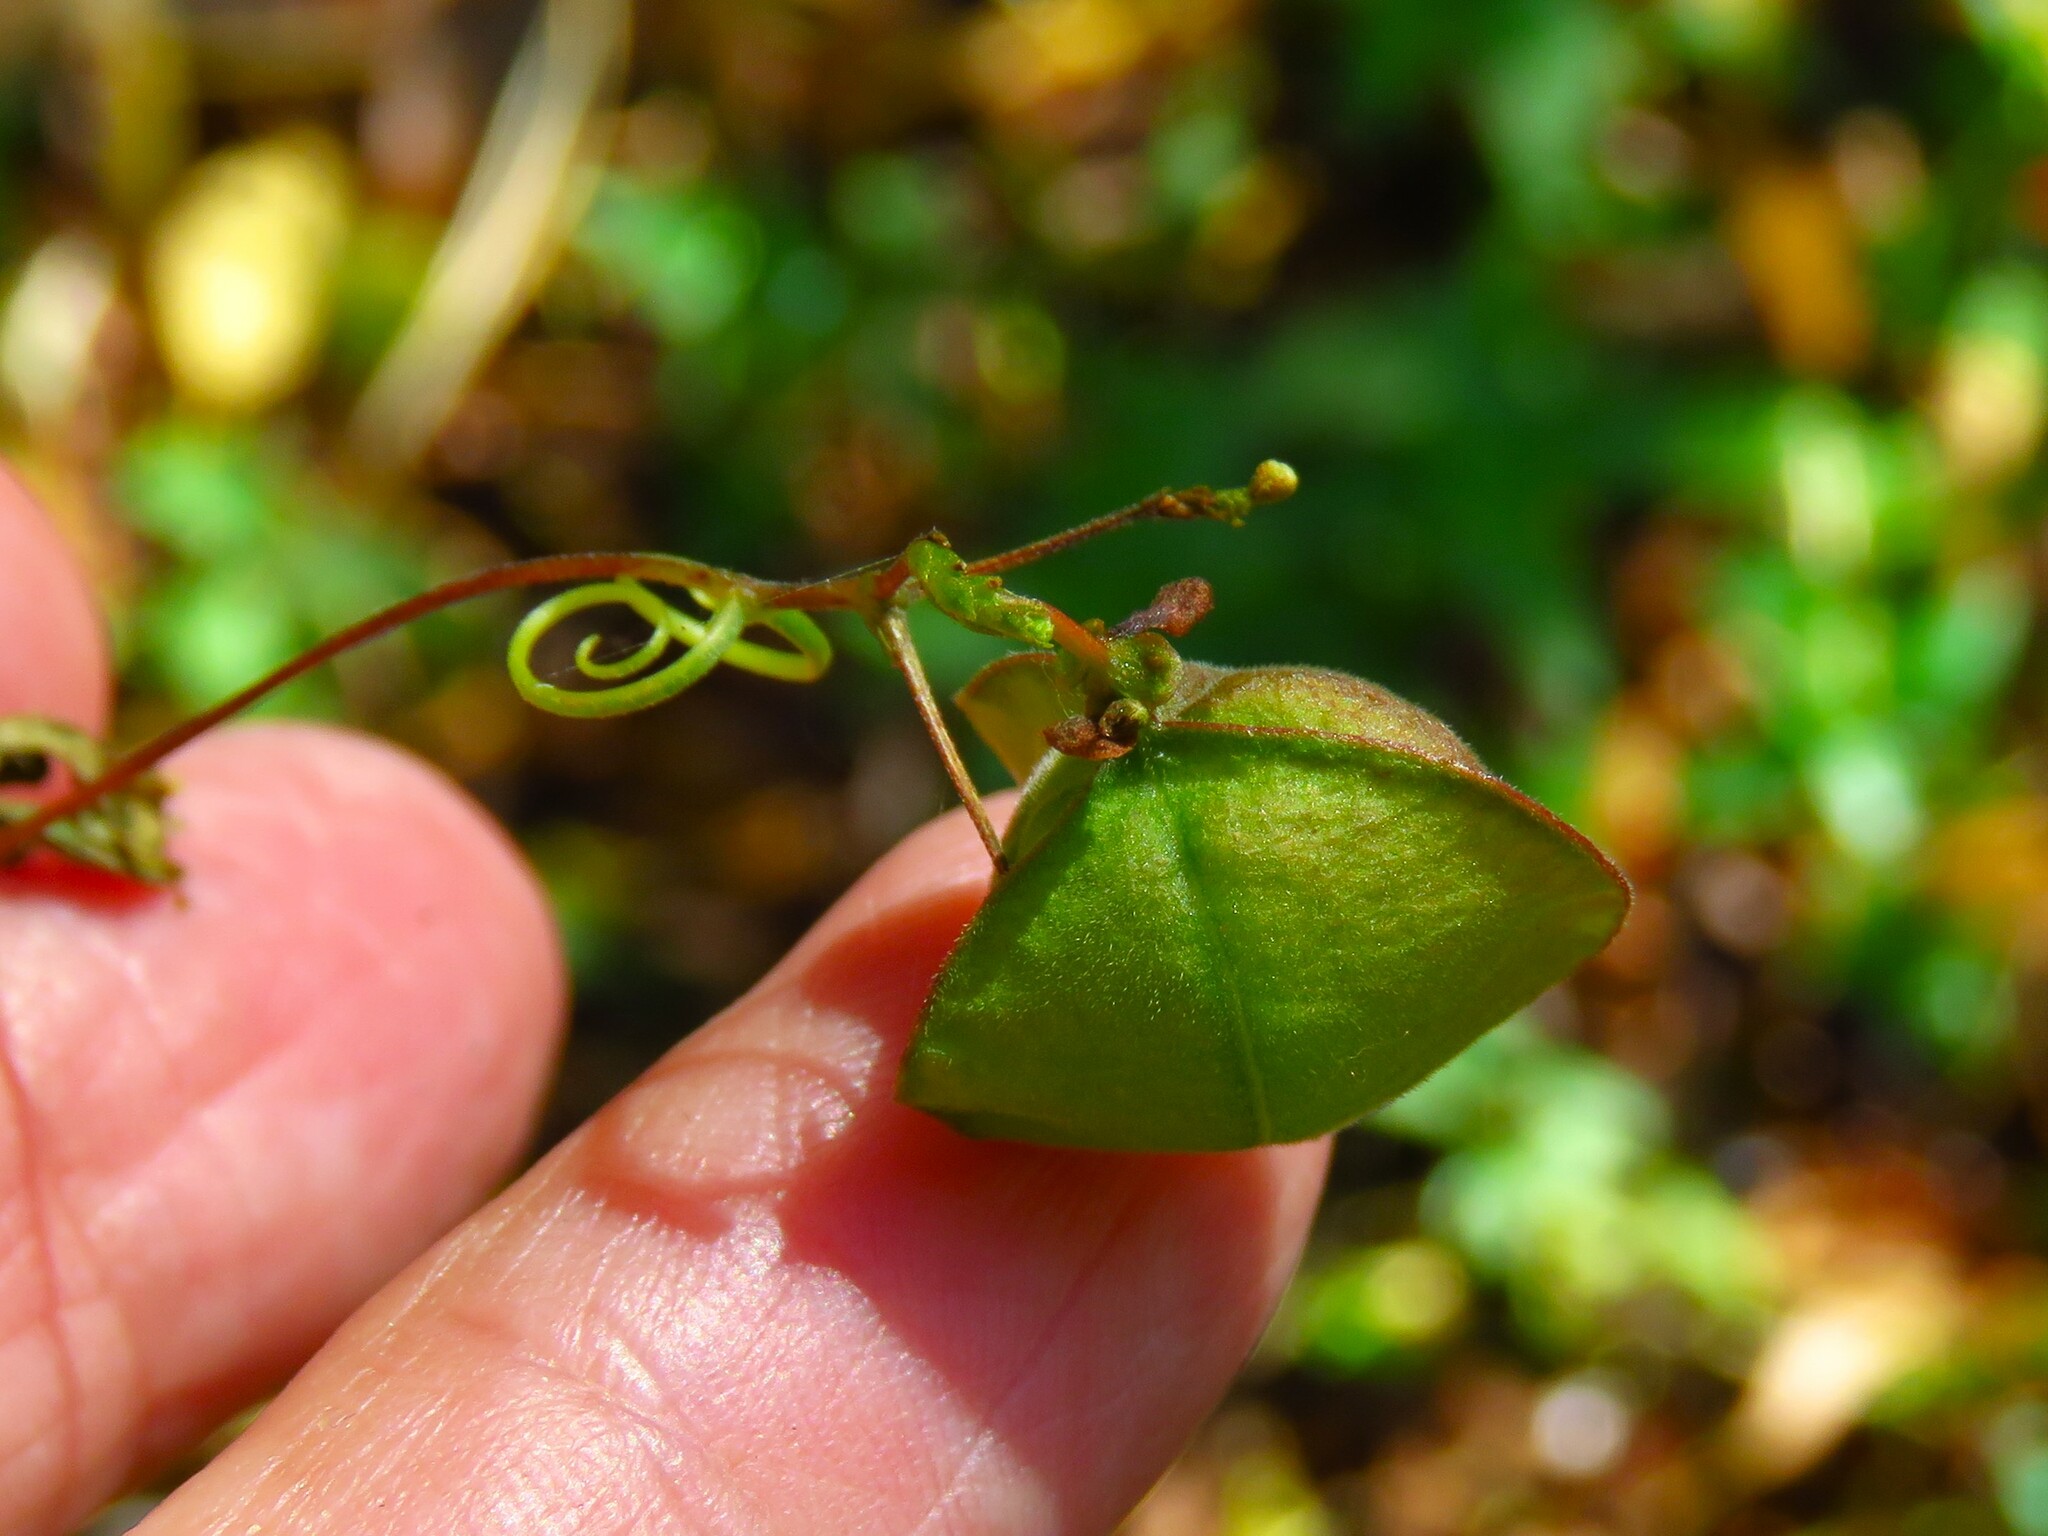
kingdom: Plantae
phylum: Tracheophyta
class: Magnoliopsida
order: Sapindales
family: Sapindaceae
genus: Cardiospermum
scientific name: Cardiospermum halicacabum
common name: Balloon vine
